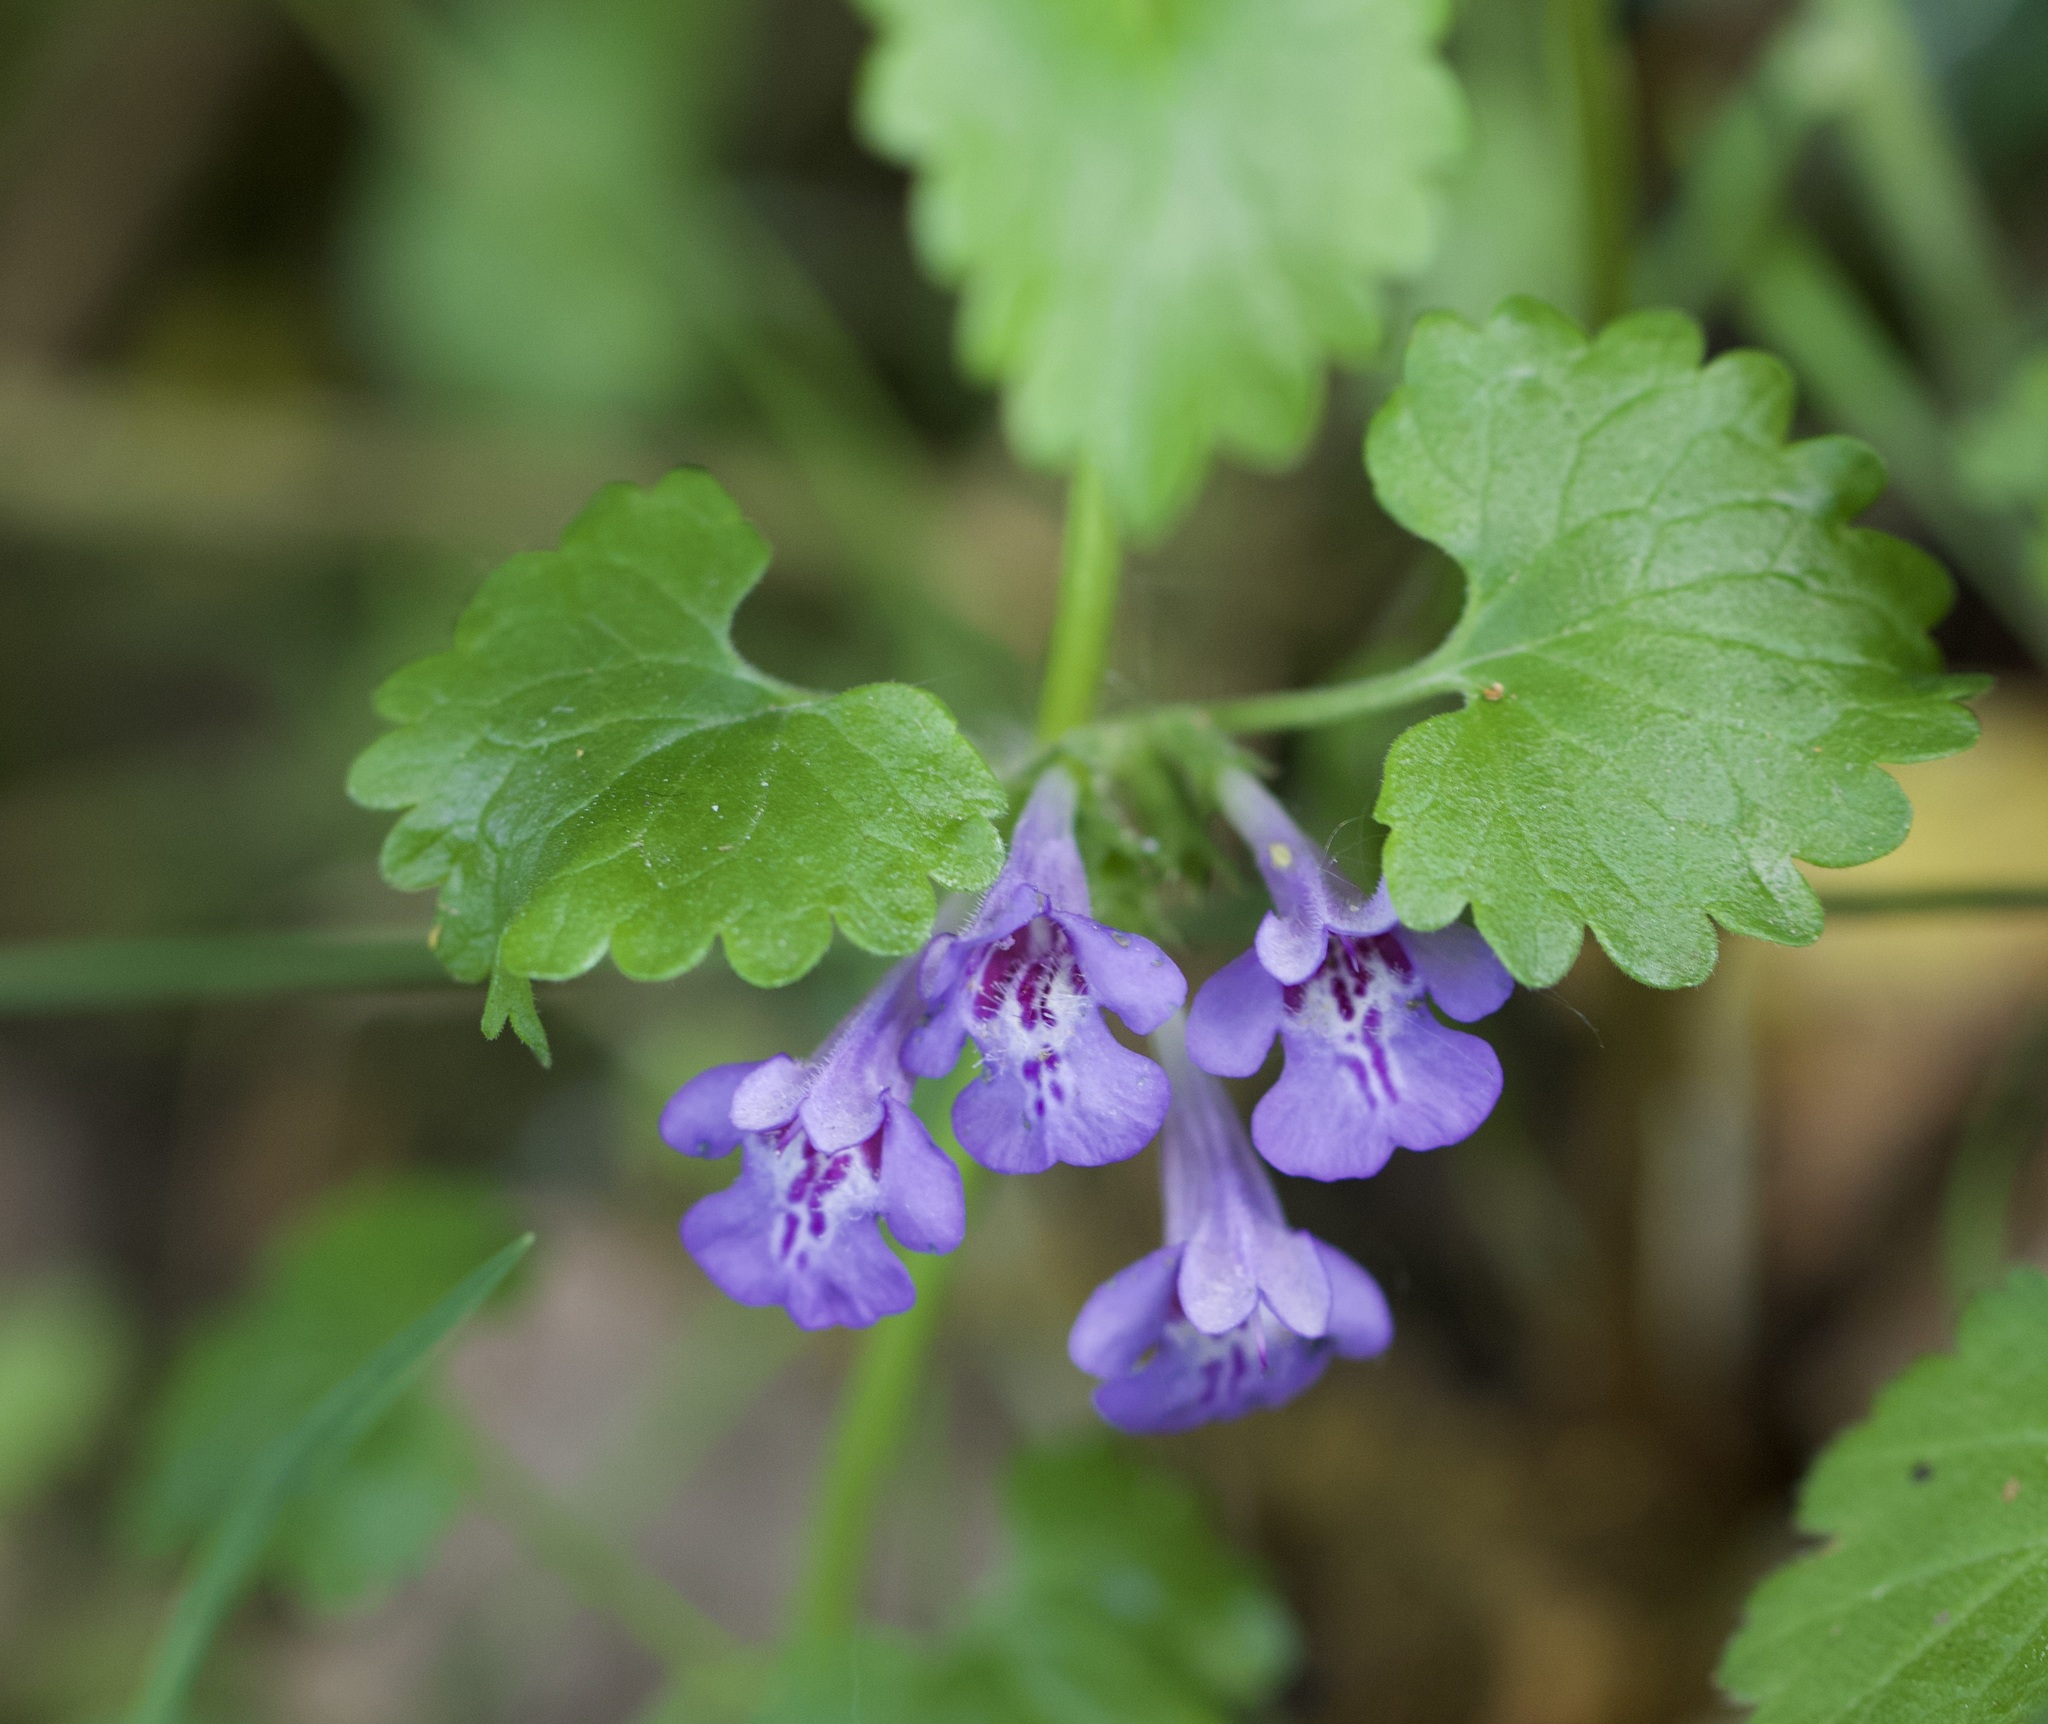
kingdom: Plantae
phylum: Tracheophyta
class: Magnoliopsida
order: Lamiales
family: Lamiaceae
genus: Glechoma
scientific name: Glechoma hederacea
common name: Ground ivy
